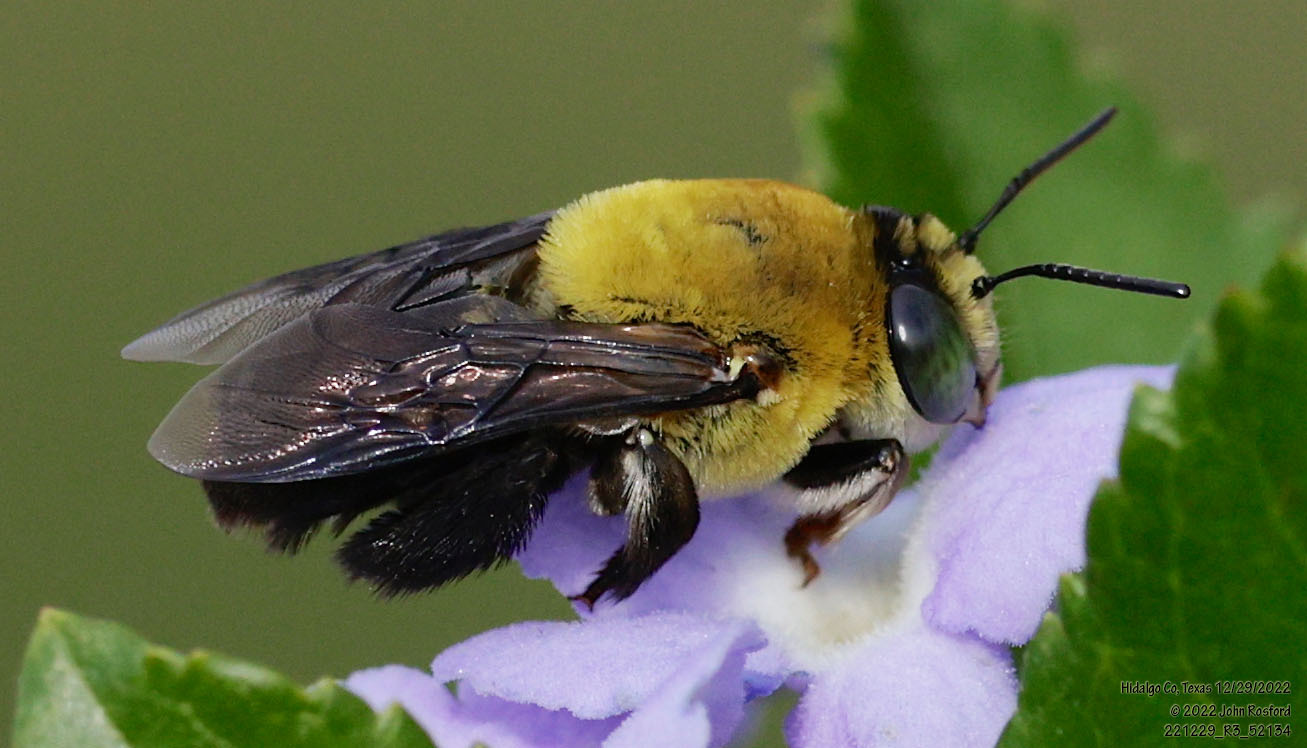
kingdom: Animalia
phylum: Arthropoda
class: Insecta
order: Hymenoptera
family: Apidae
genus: Centris
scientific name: Centris nitida
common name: Oil-collecting bee
